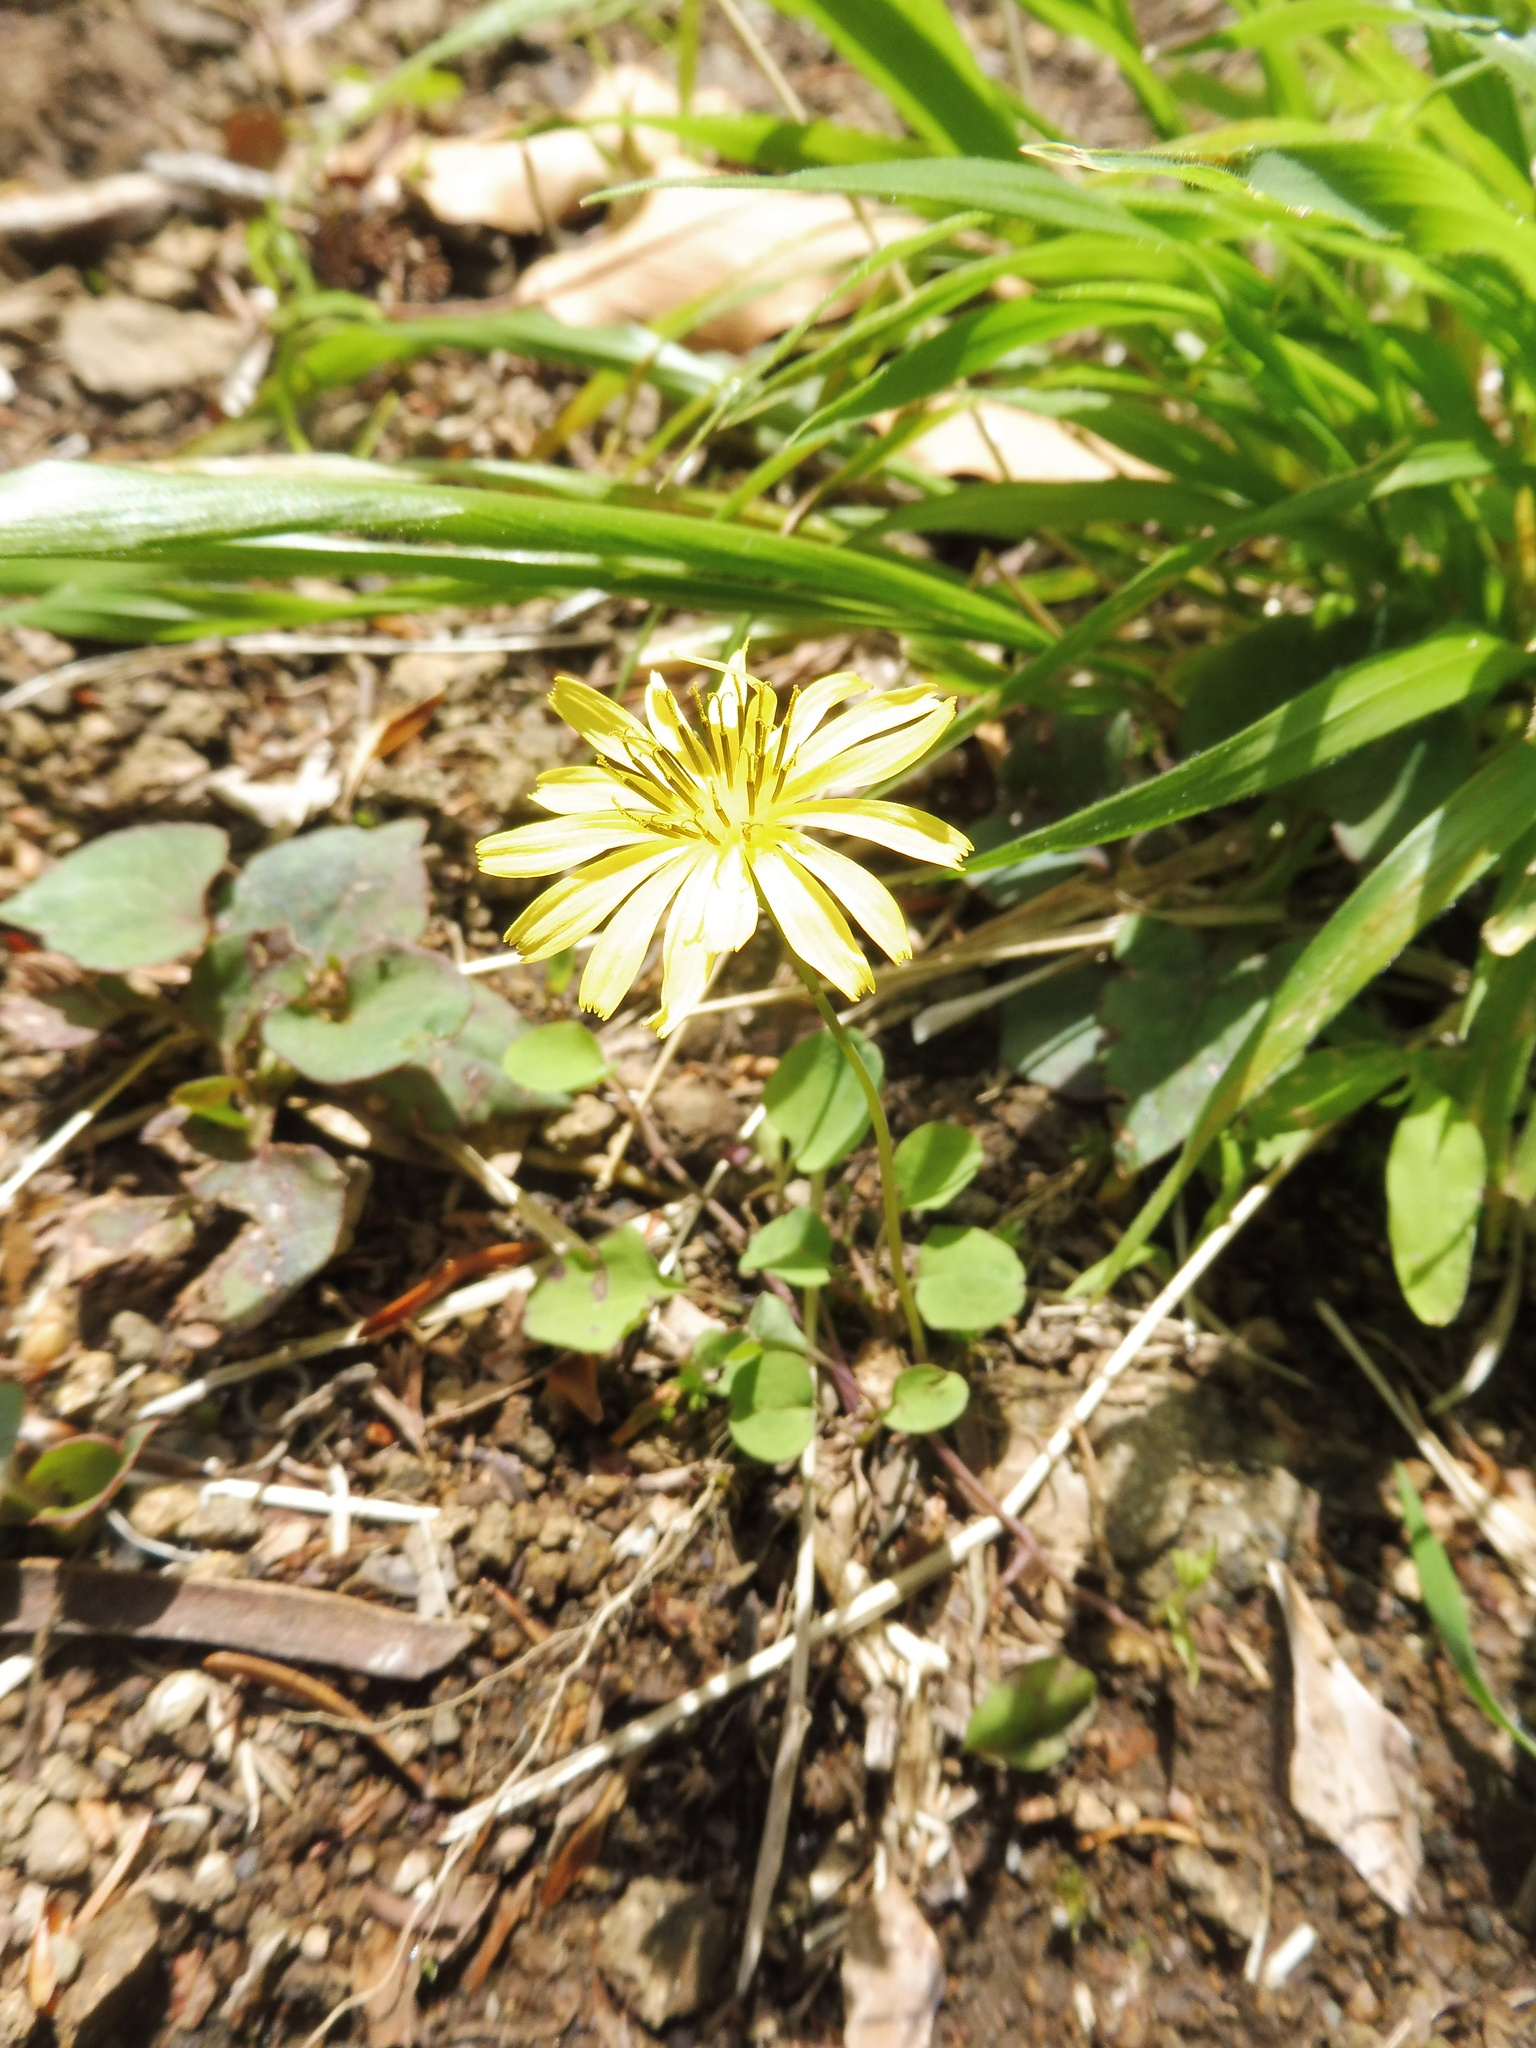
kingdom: Plantae
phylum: Tracheophyta
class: Magnoliopsida
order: Asterales
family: Asteraceae
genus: Ixeris
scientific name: Ixeris stolonifera
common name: Creeping lettuce
